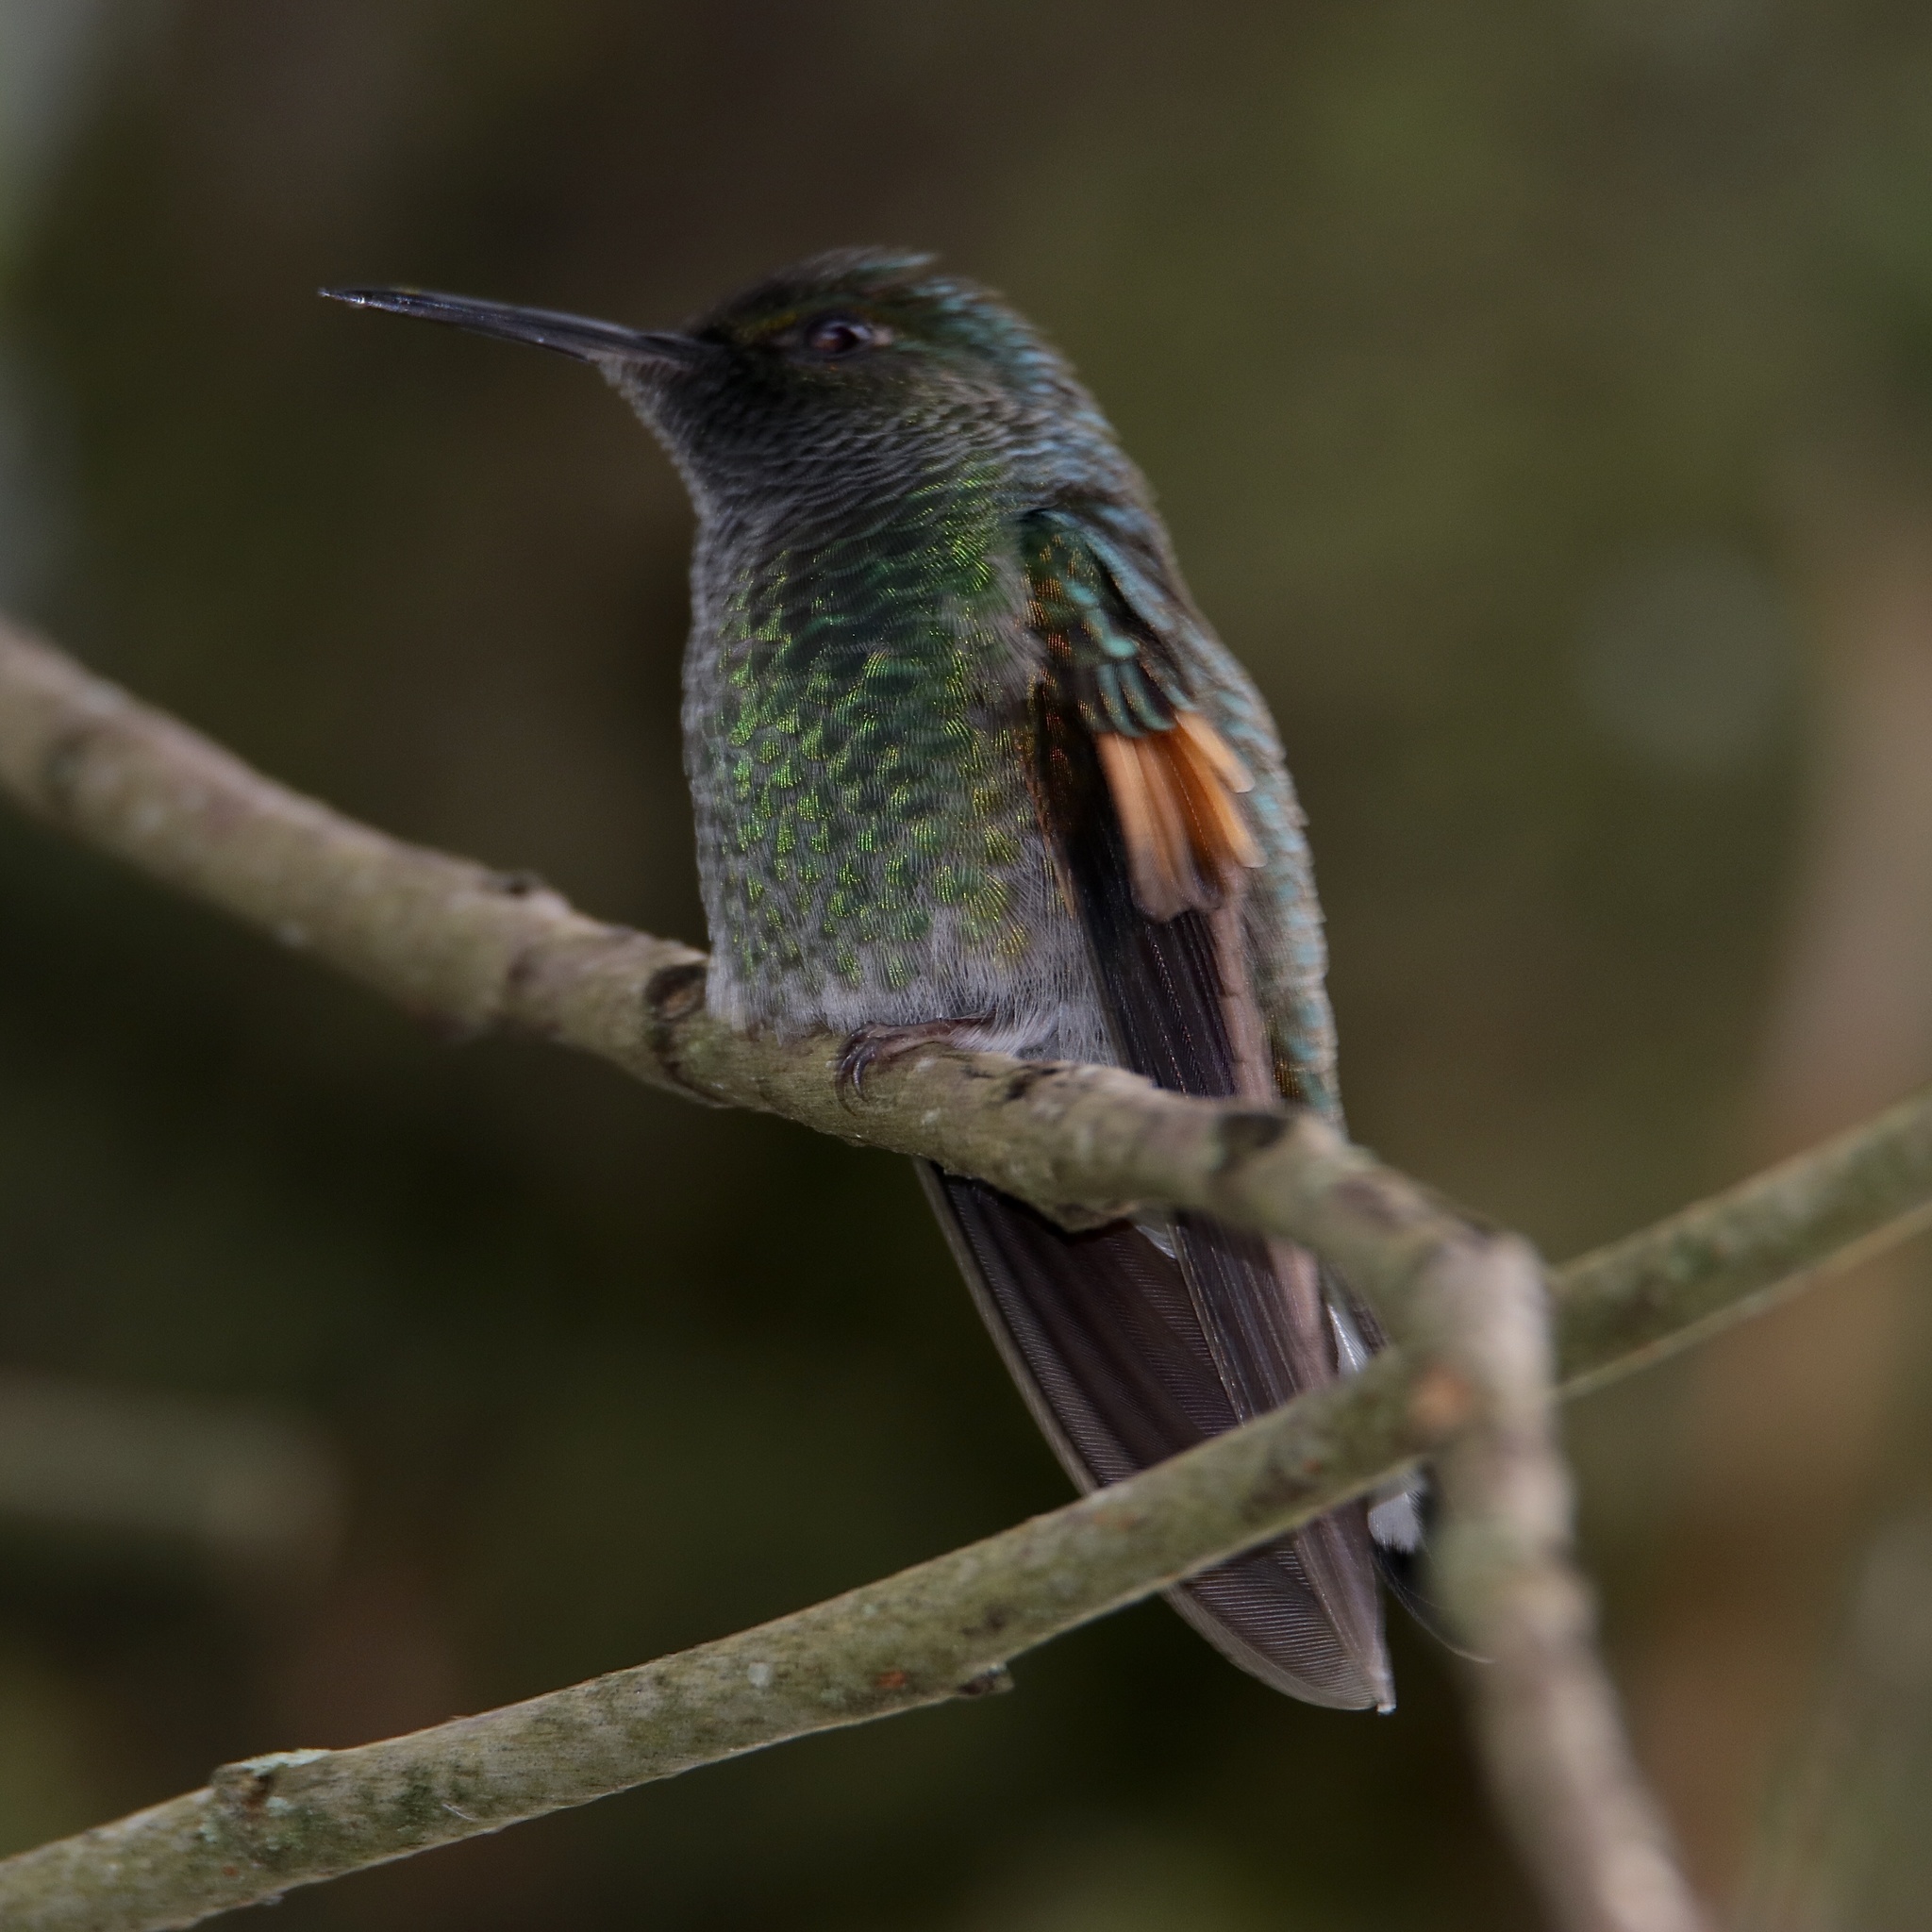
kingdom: Animalia
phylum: Chordata
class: Aves
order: Apodiformes
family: Trochilidae
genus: Eupherusa
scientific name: Eupherusa eximia
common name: Stripe-tailed hummingbird
